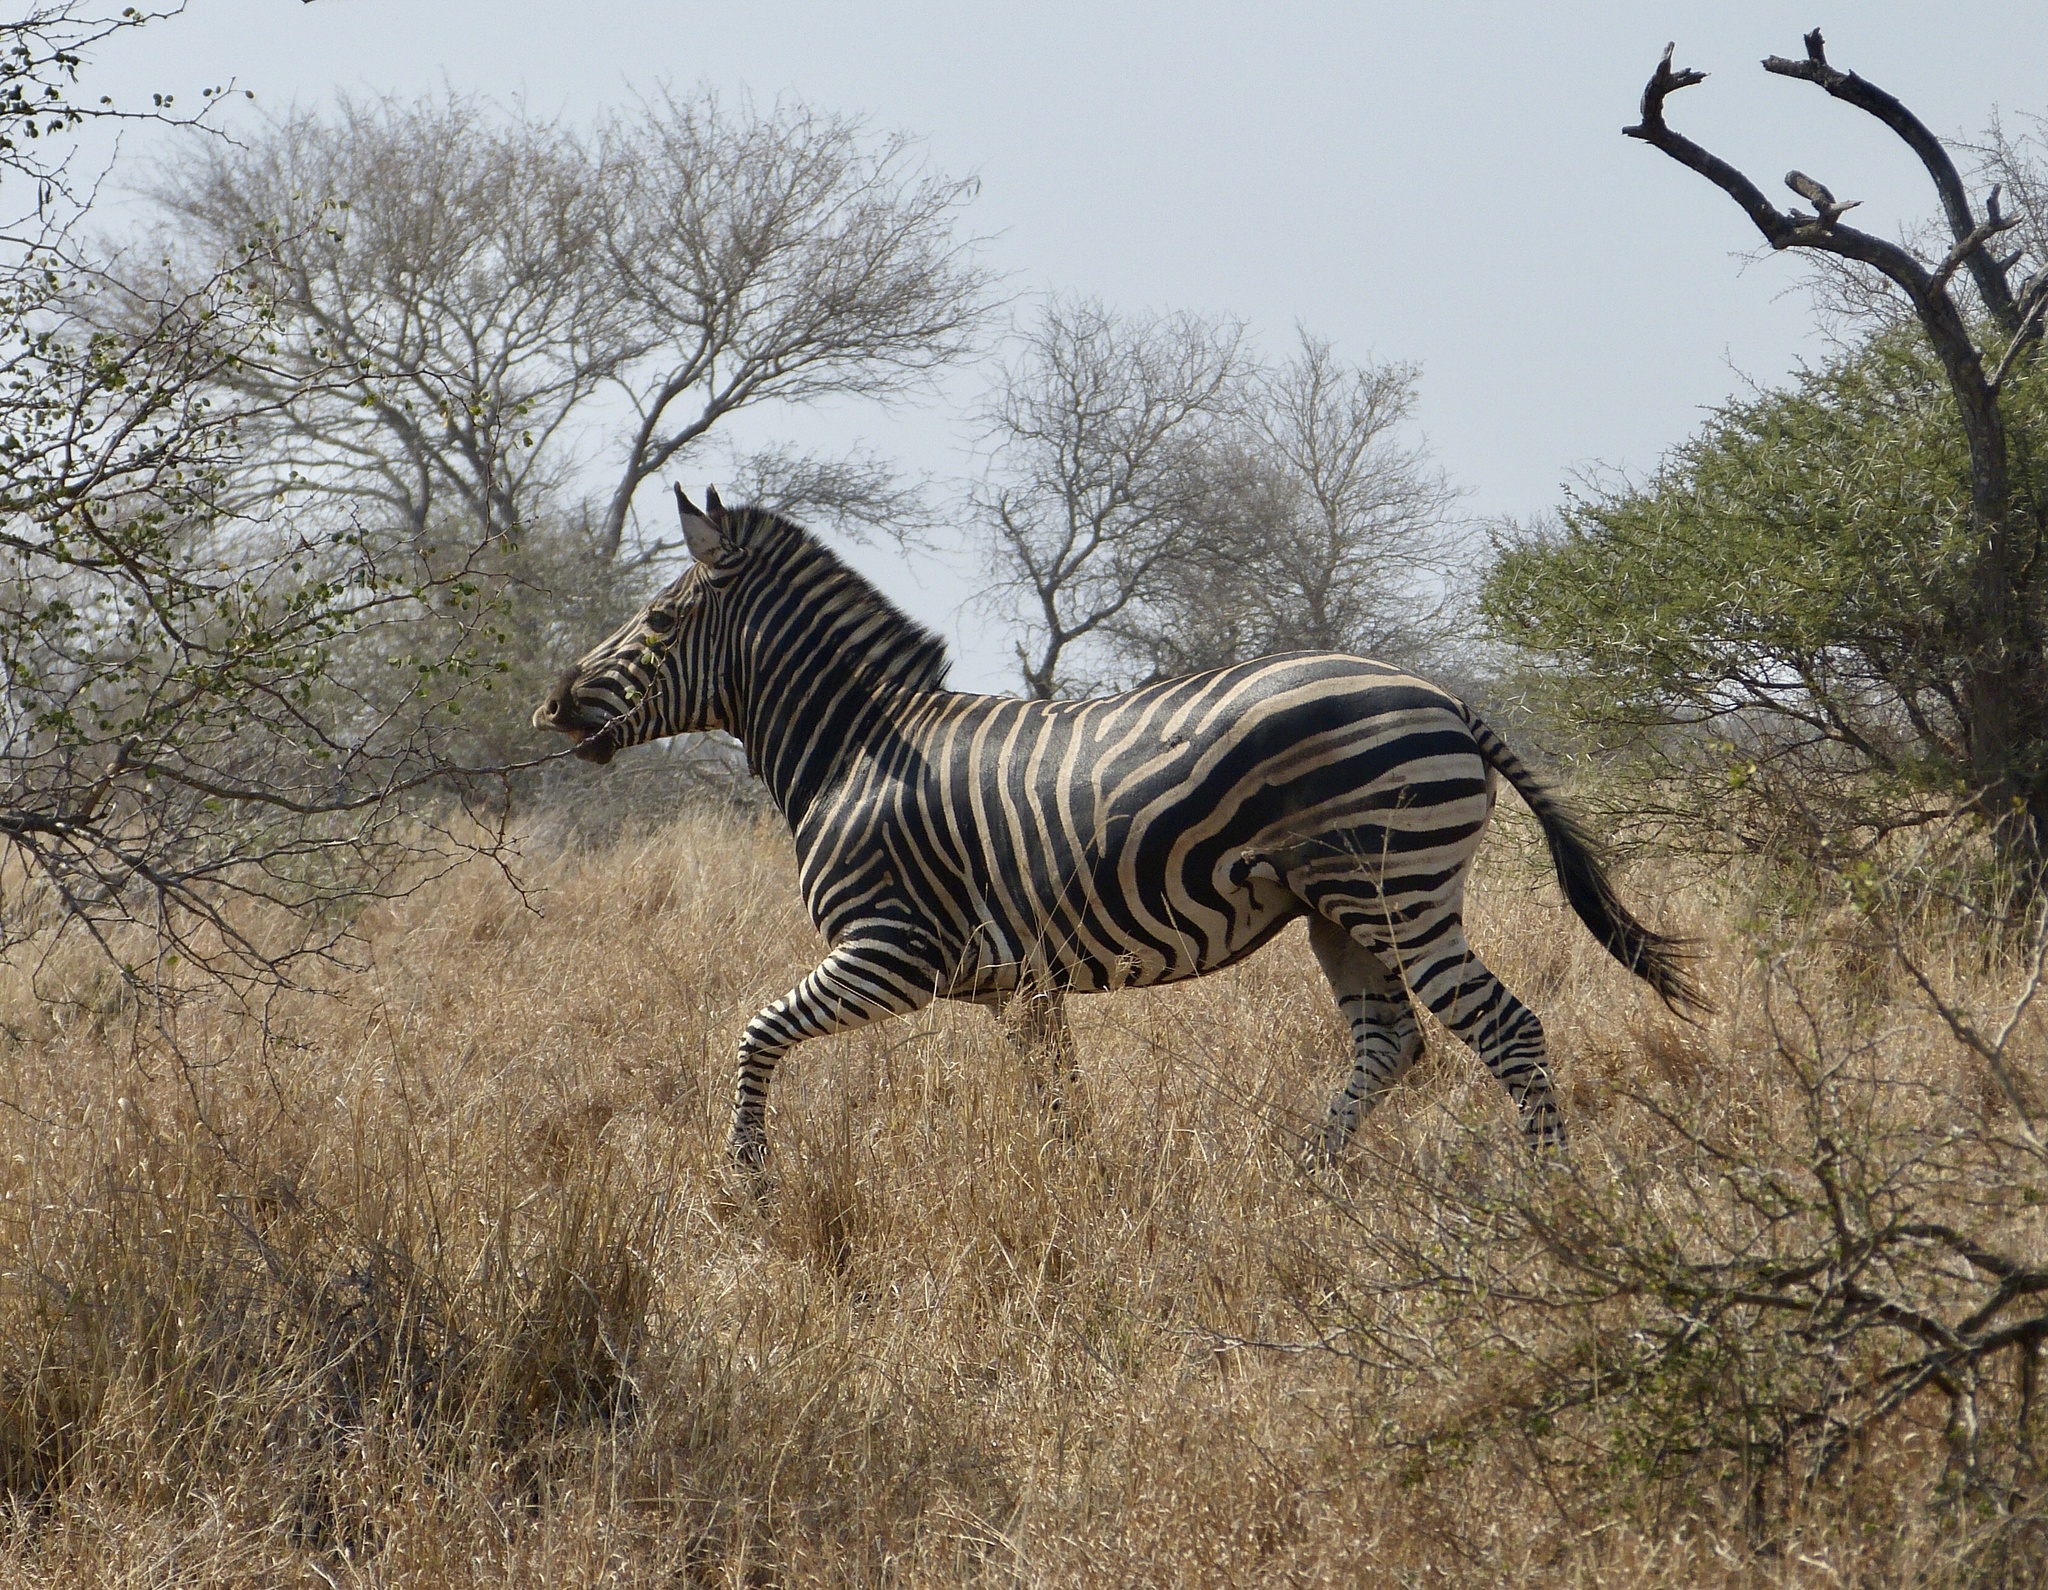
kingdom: Animalia
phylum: Chordata
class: Mammalia
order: Perissodactyla
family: Equidae
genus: Equus
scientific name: Equus quagga
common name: Plains zebra
